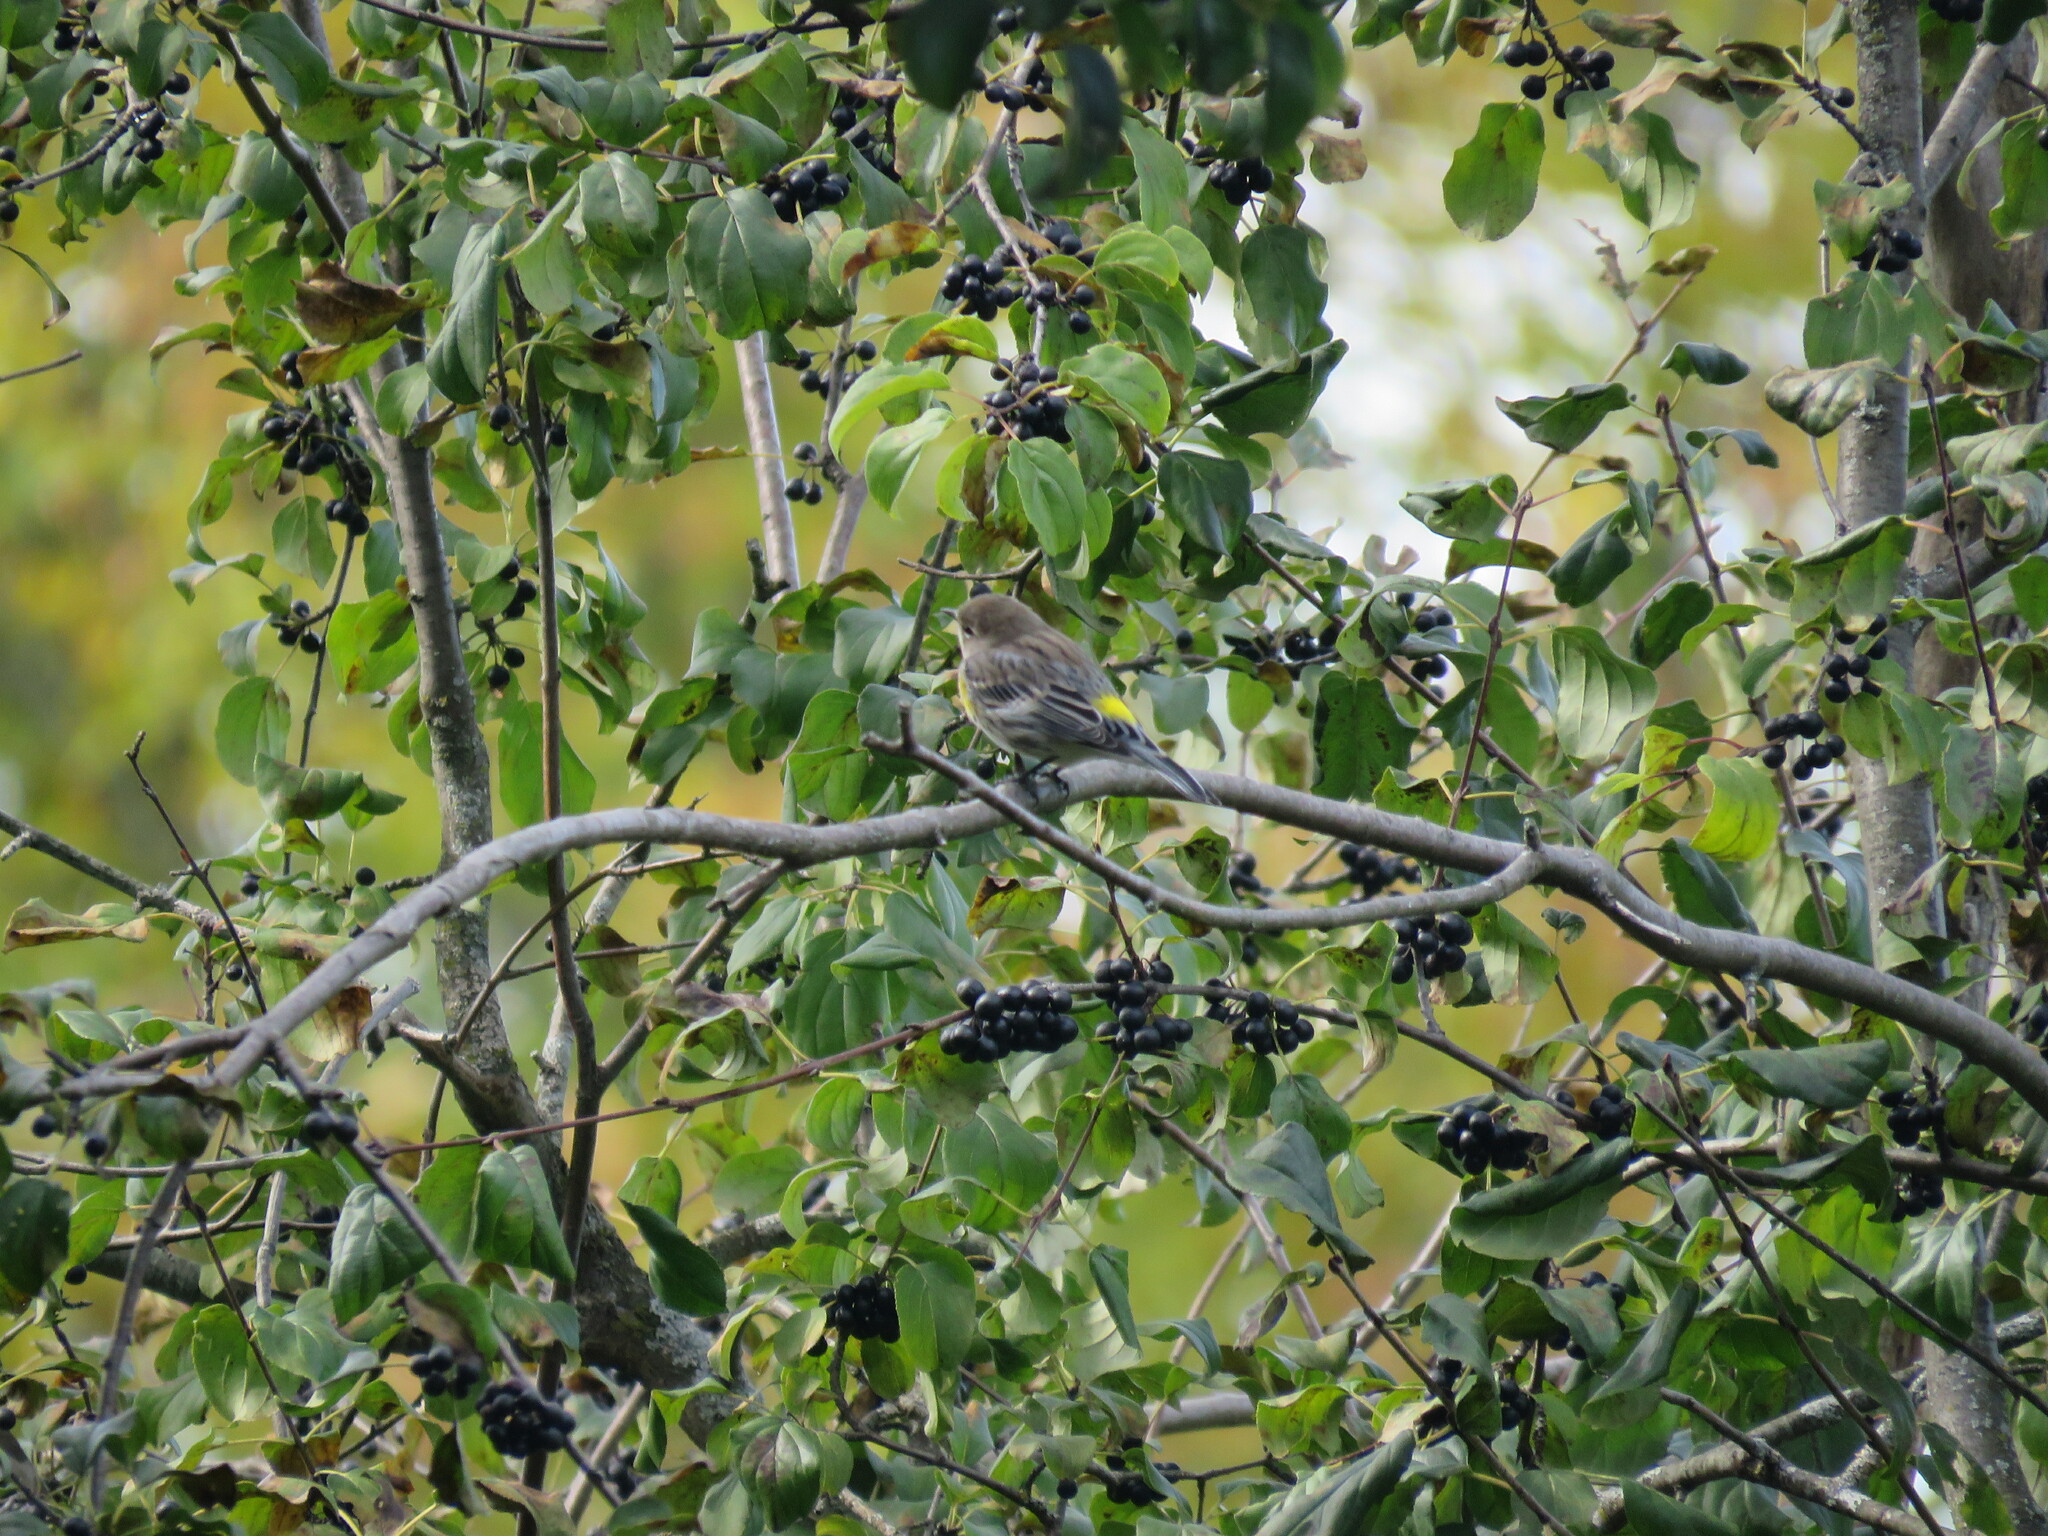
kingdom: Plantae
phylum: Tracheophyta
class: Magnoliopsida
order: Rosales
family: Rhamnaceae
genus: Rhamnus
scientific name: Rhamnus cathartica
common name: Common buckthorn
